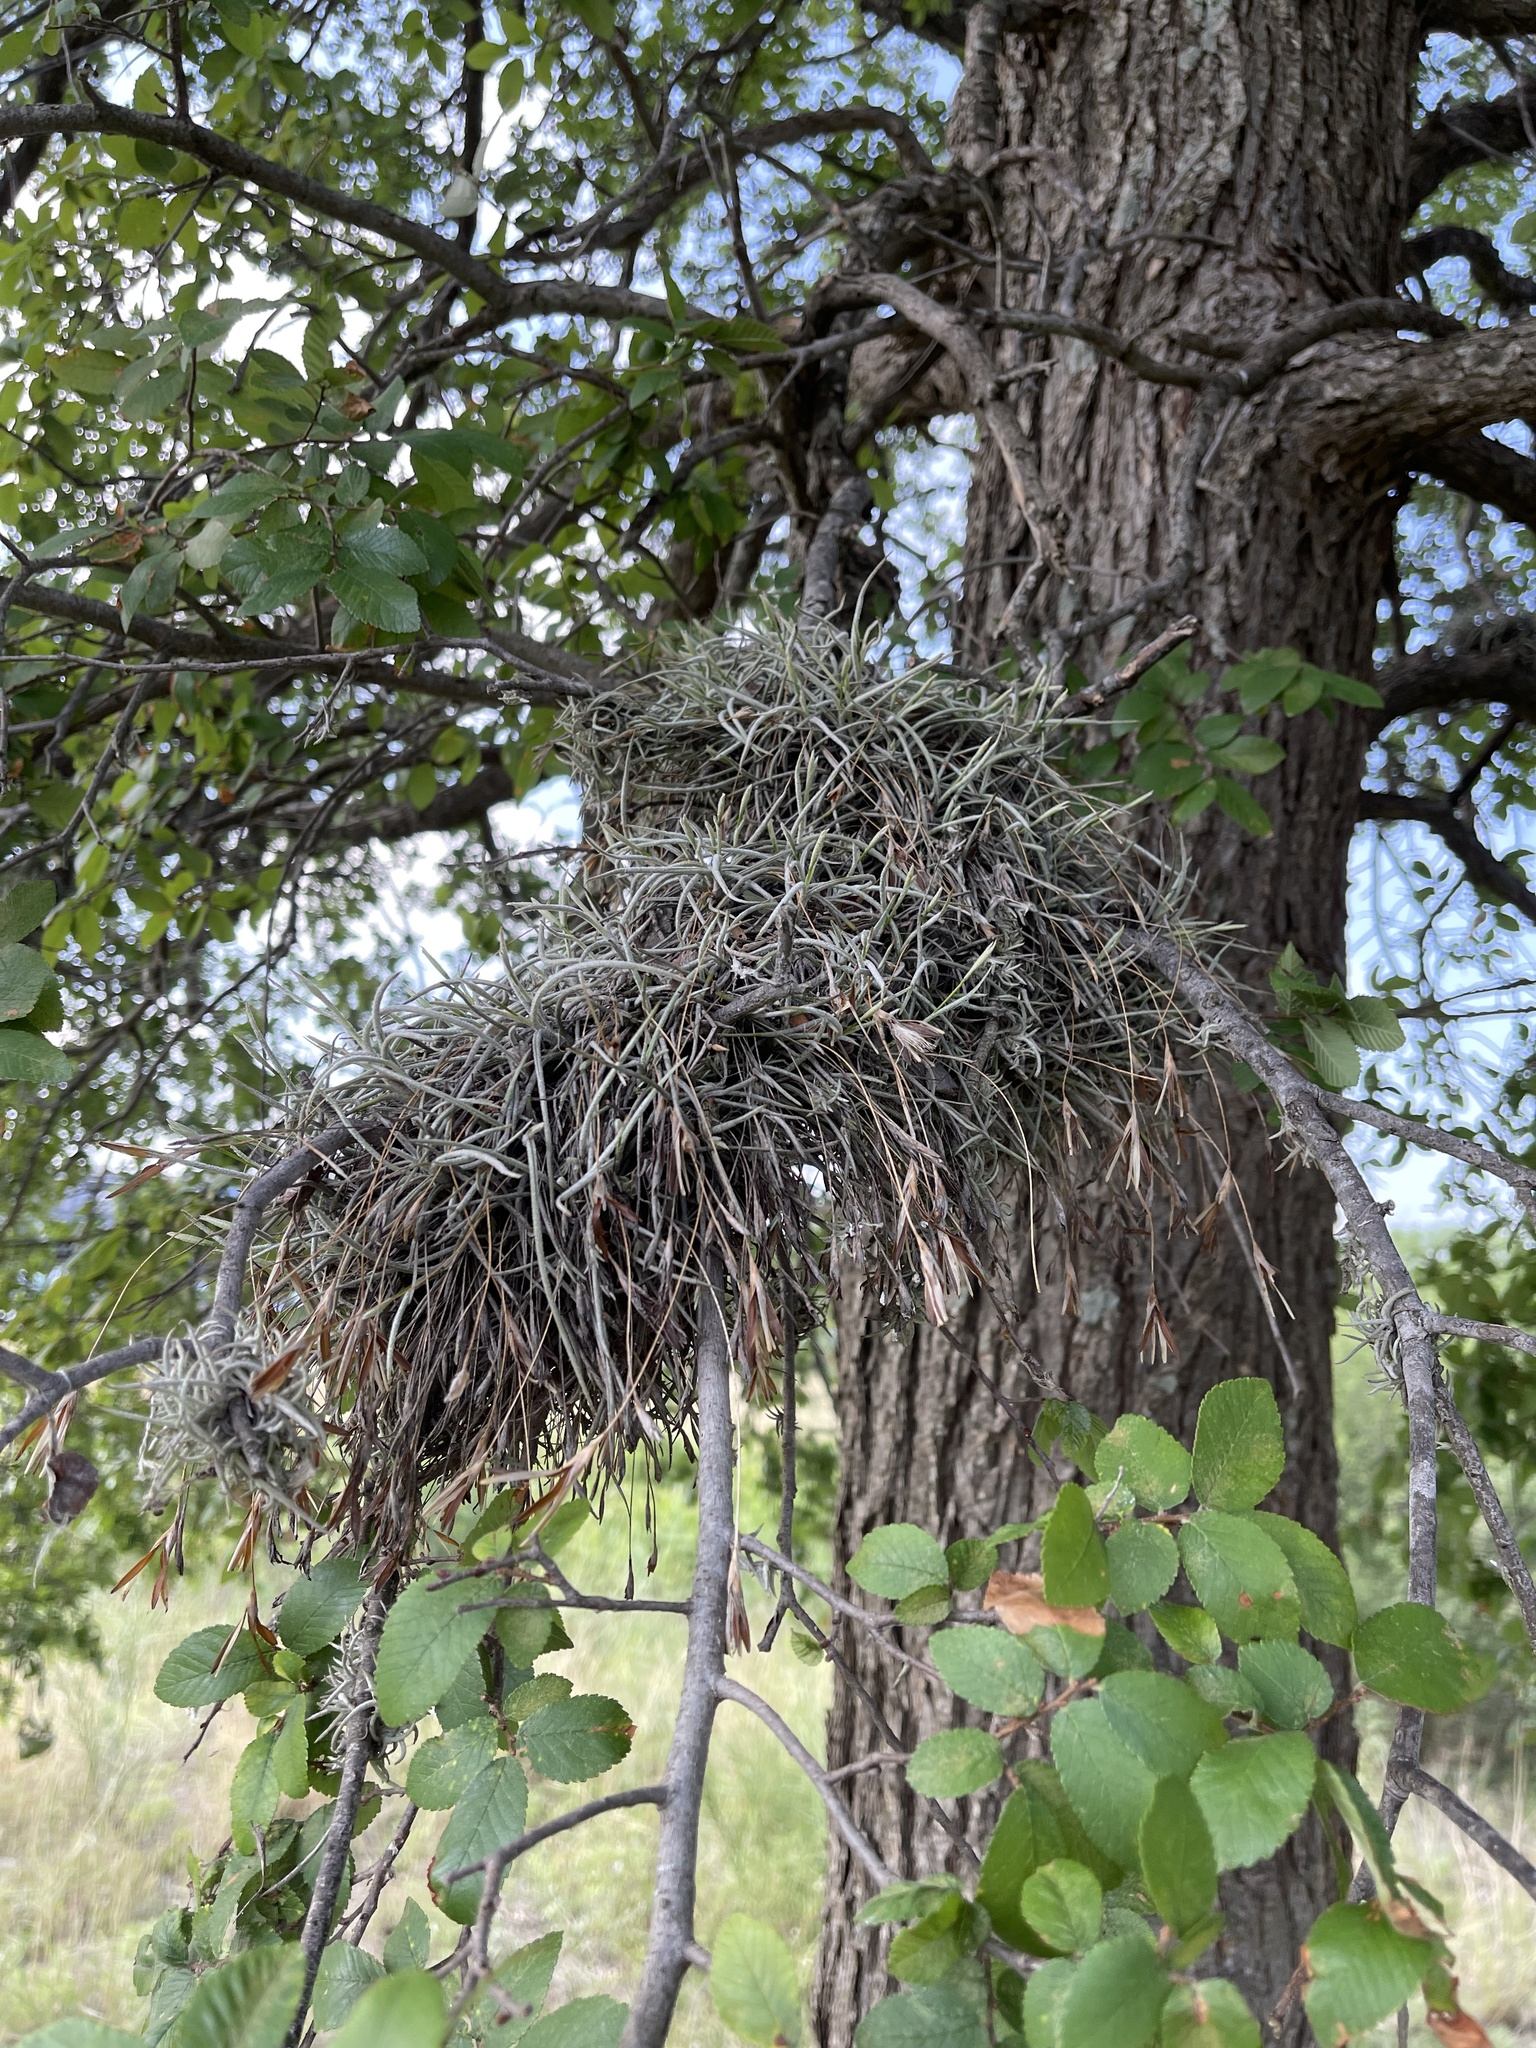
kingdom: Plantae
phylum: Tracheophyta
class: Liliopsida
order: Poales
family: Bromeliaceae
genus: Tillandsia
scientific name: Tillandsia recurvata
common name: Small ballmoss
